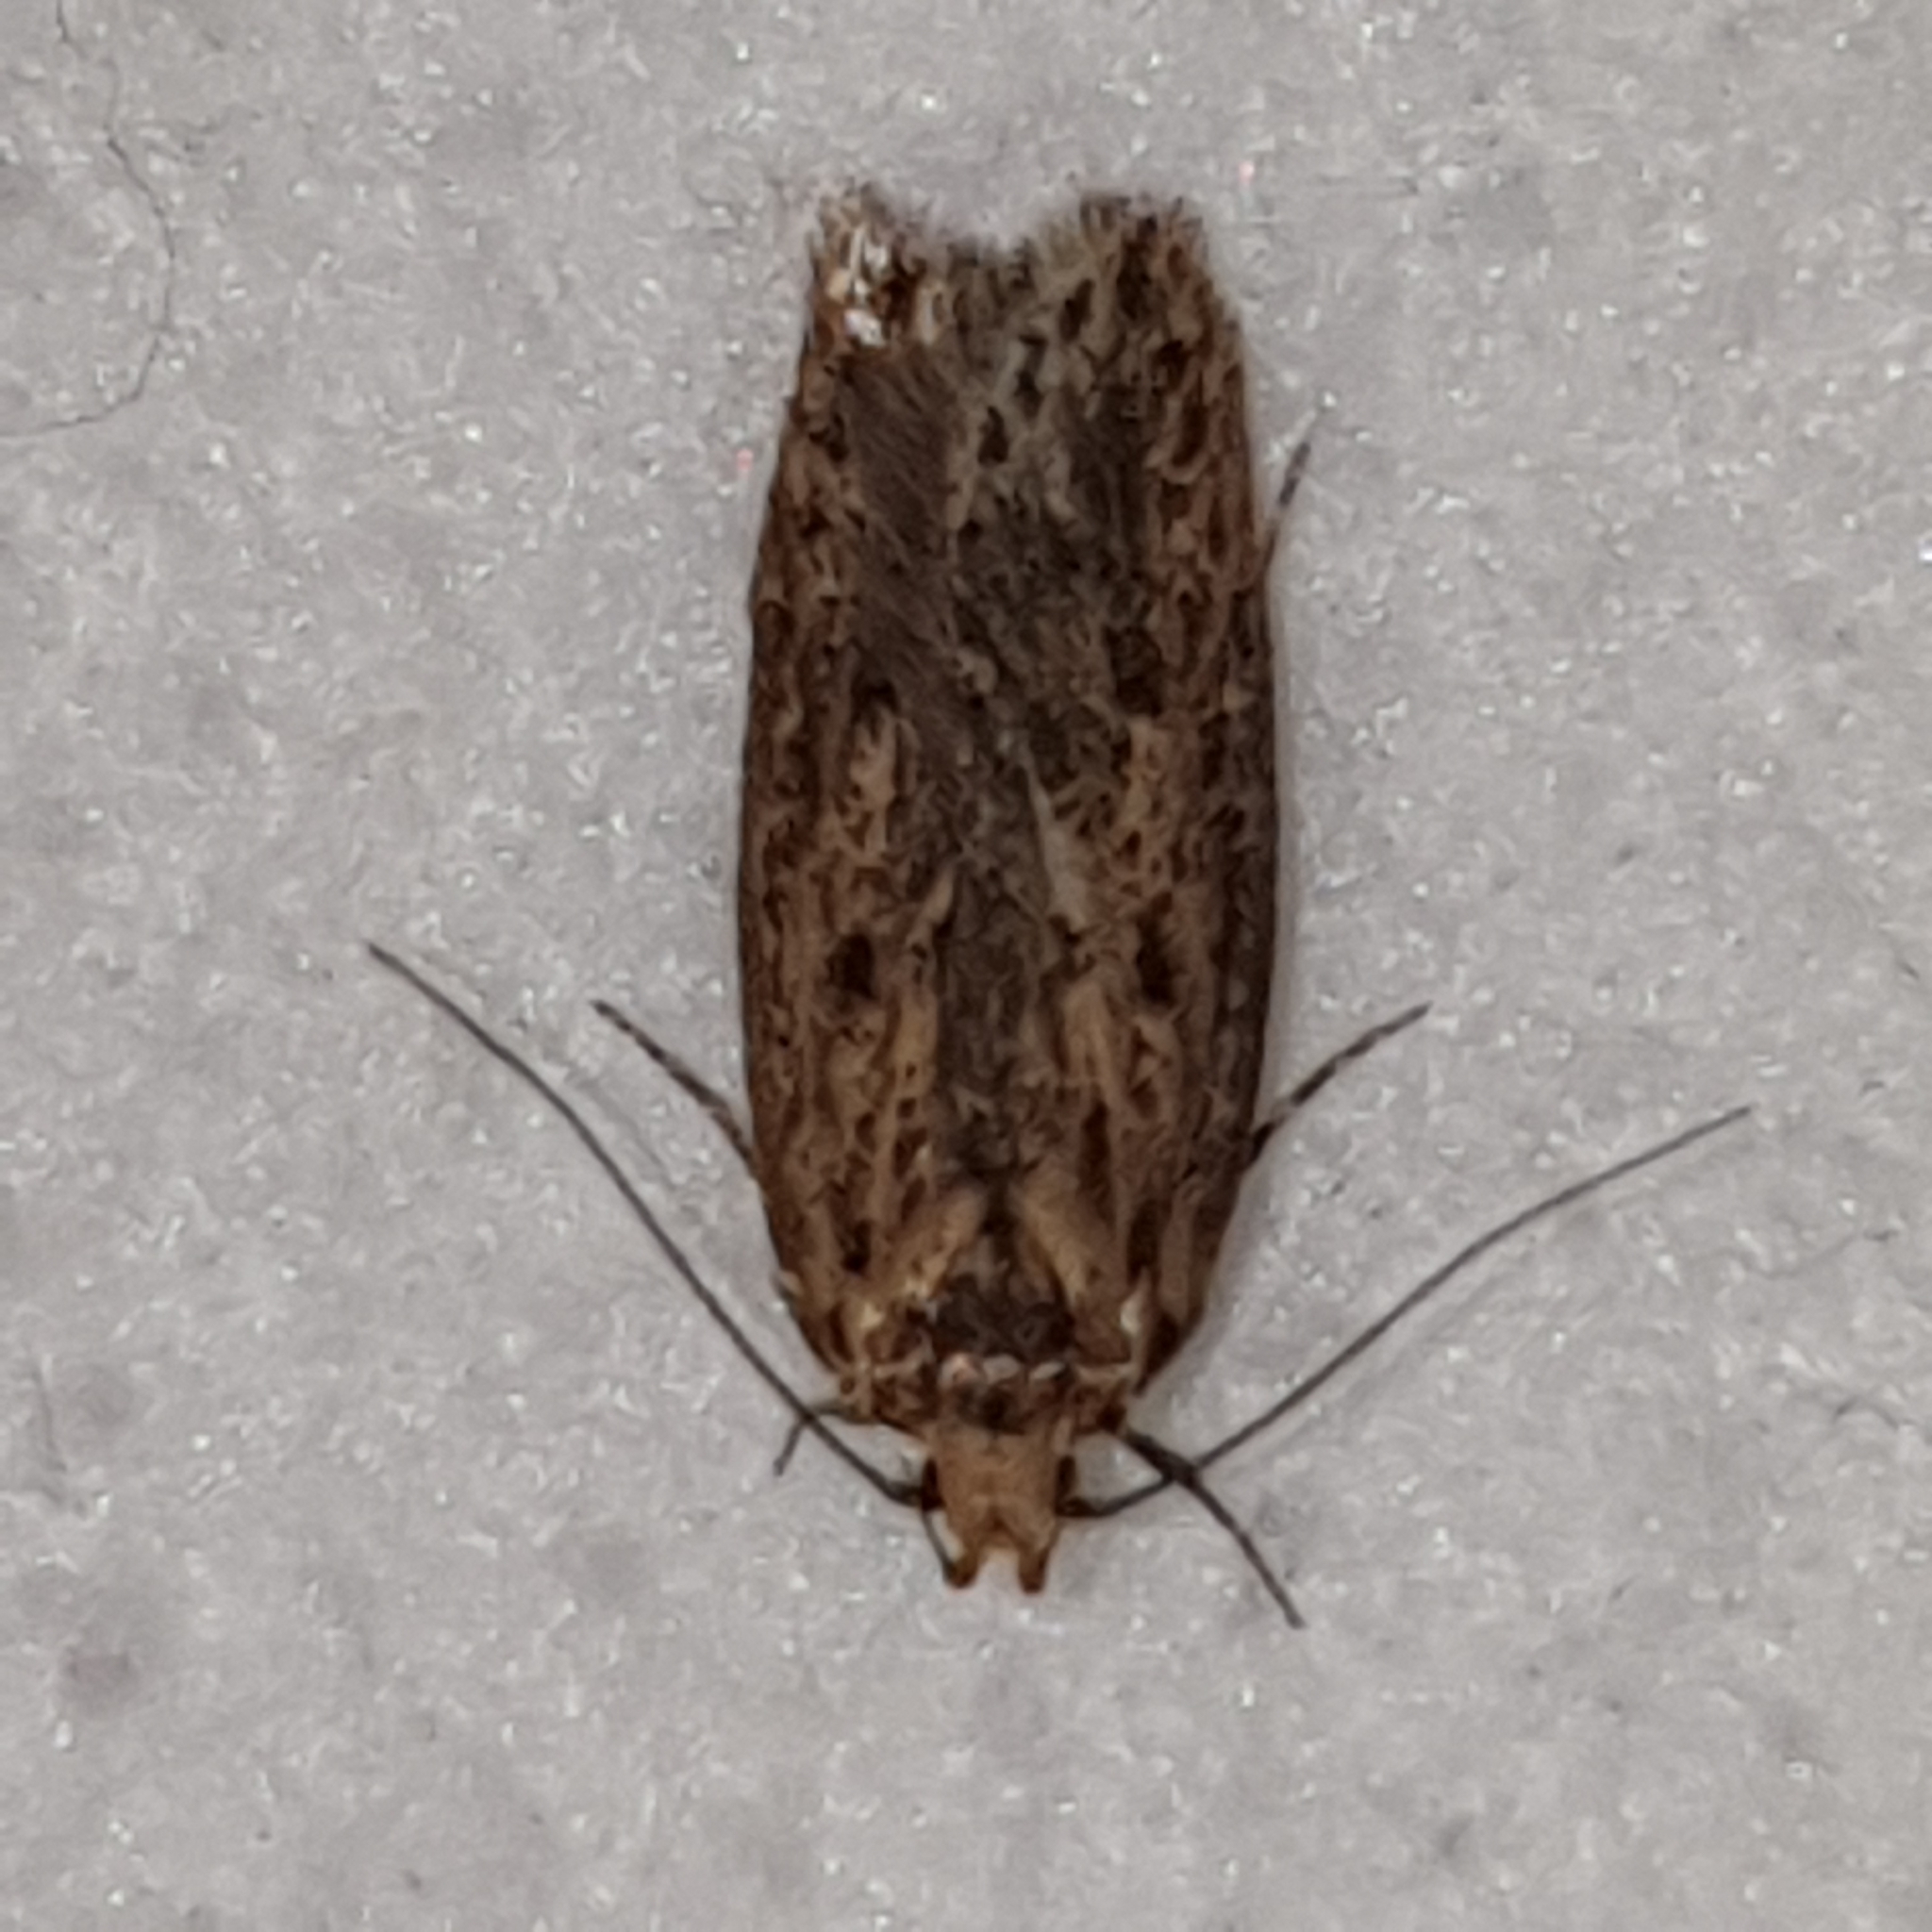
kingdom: Animalia
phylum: Arthropoda
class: Insecta
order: Lepidoptera
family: Oecophoridae
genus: Hofmannophila
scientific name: Hofmannophila pseudospretella
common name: Brown house moth
